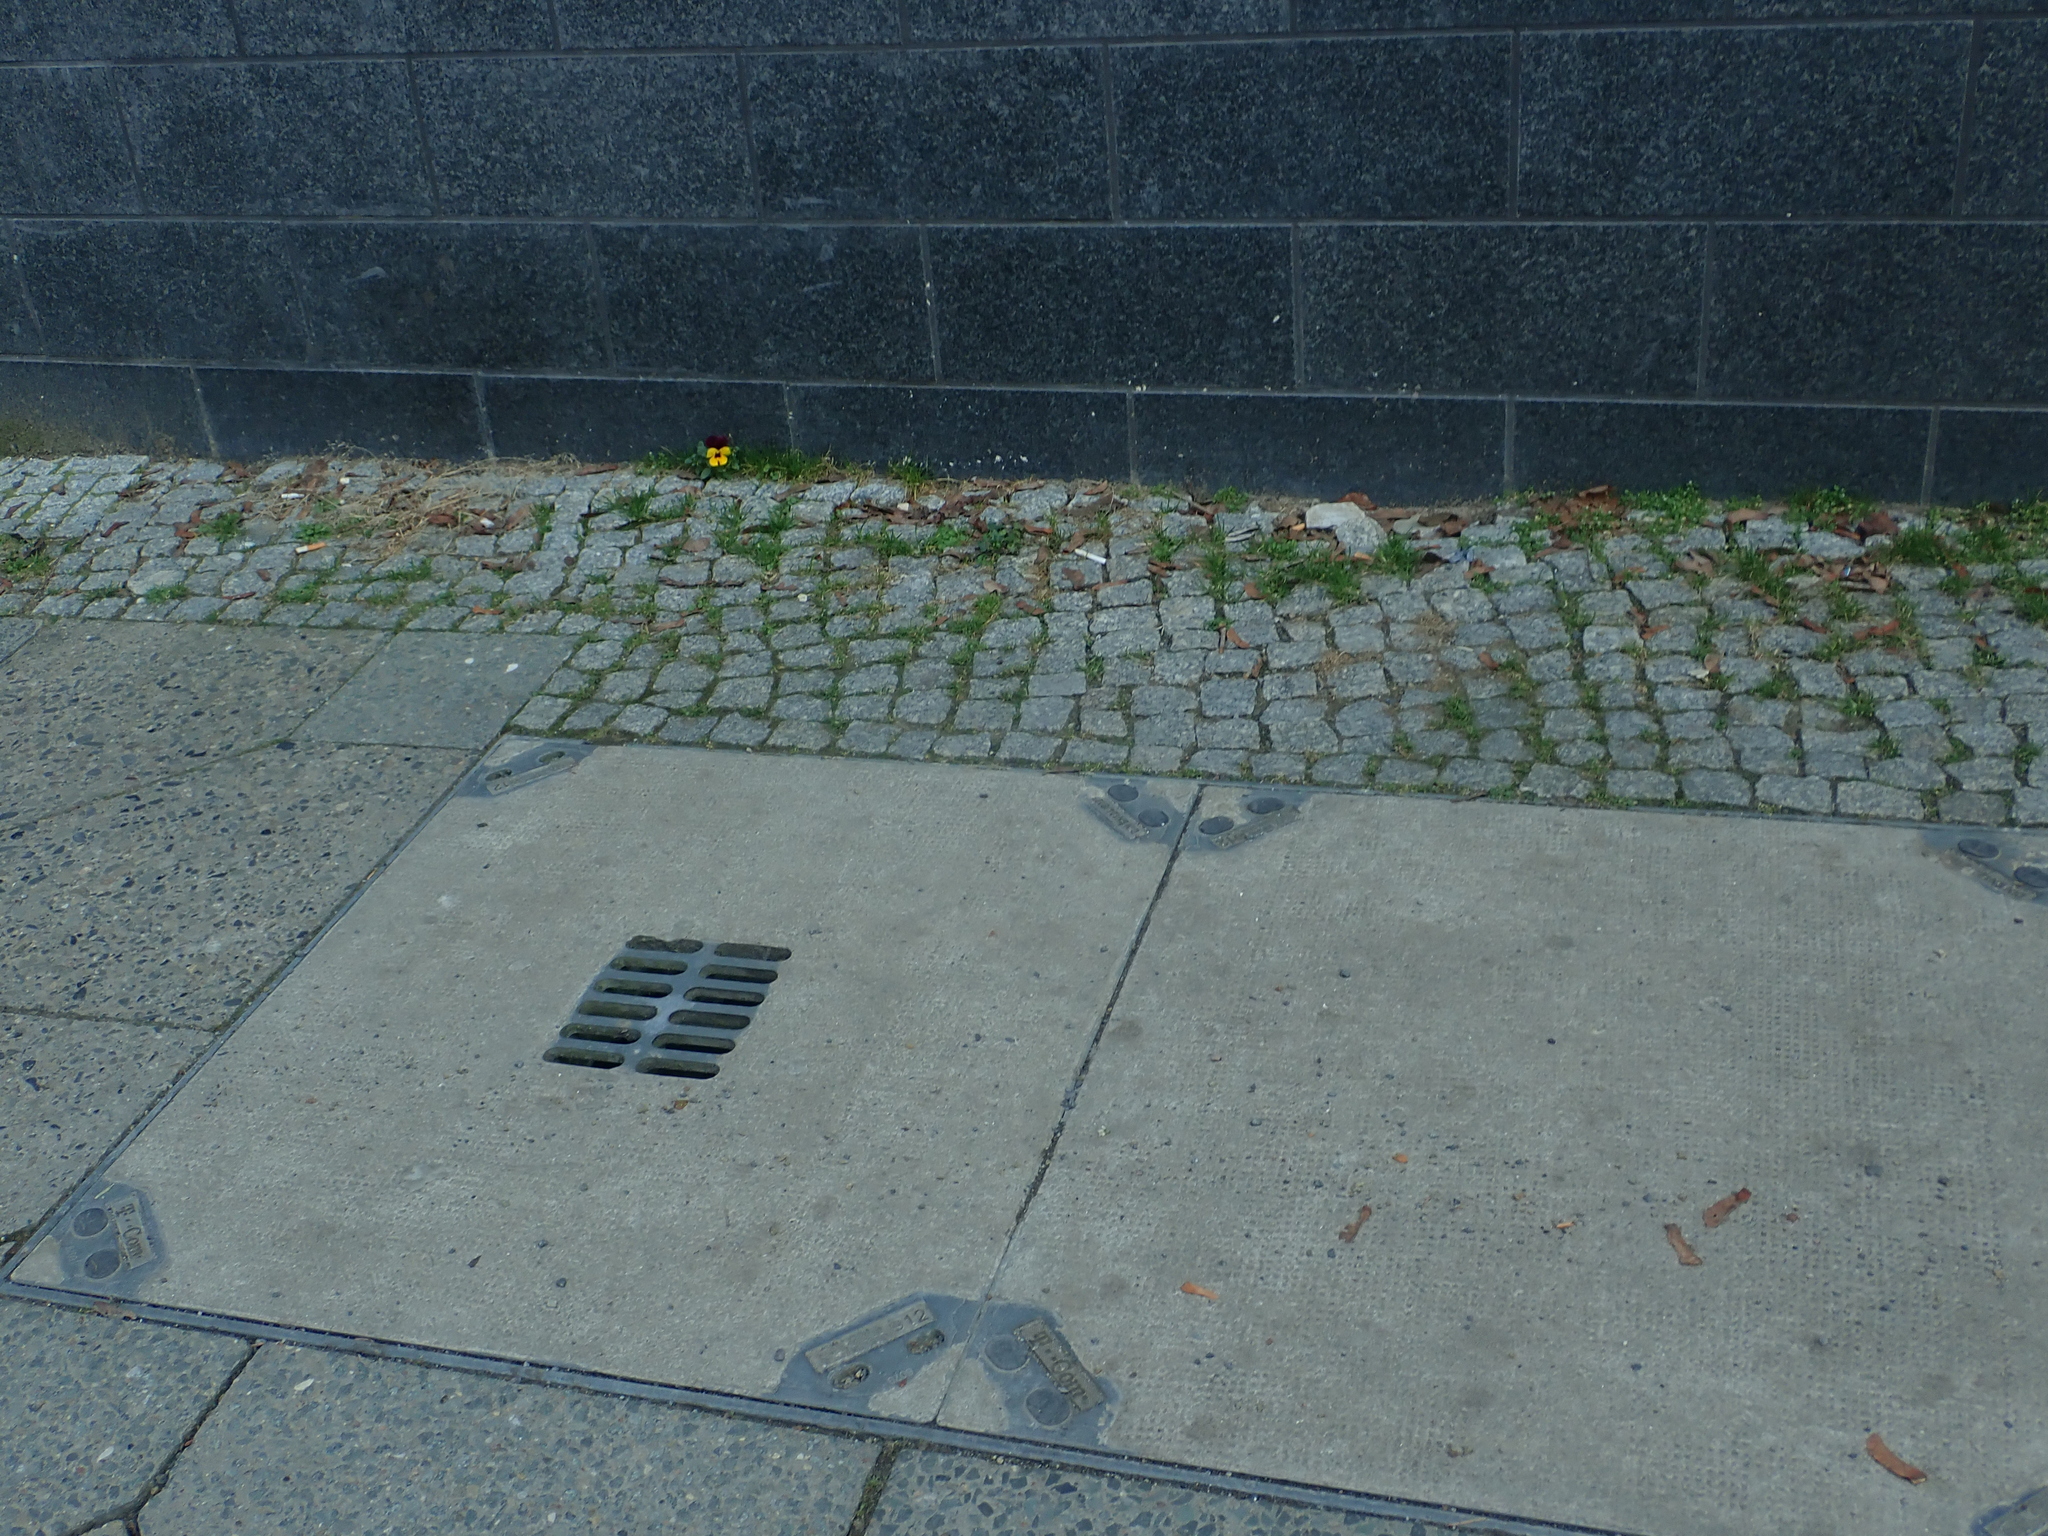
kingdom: Plantae
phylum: Tracheophyta
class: Magnoliopsida
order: Malpighiales
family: Violaceae
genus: Viola
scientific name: Viola wittrockiana
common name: Garden pansy
